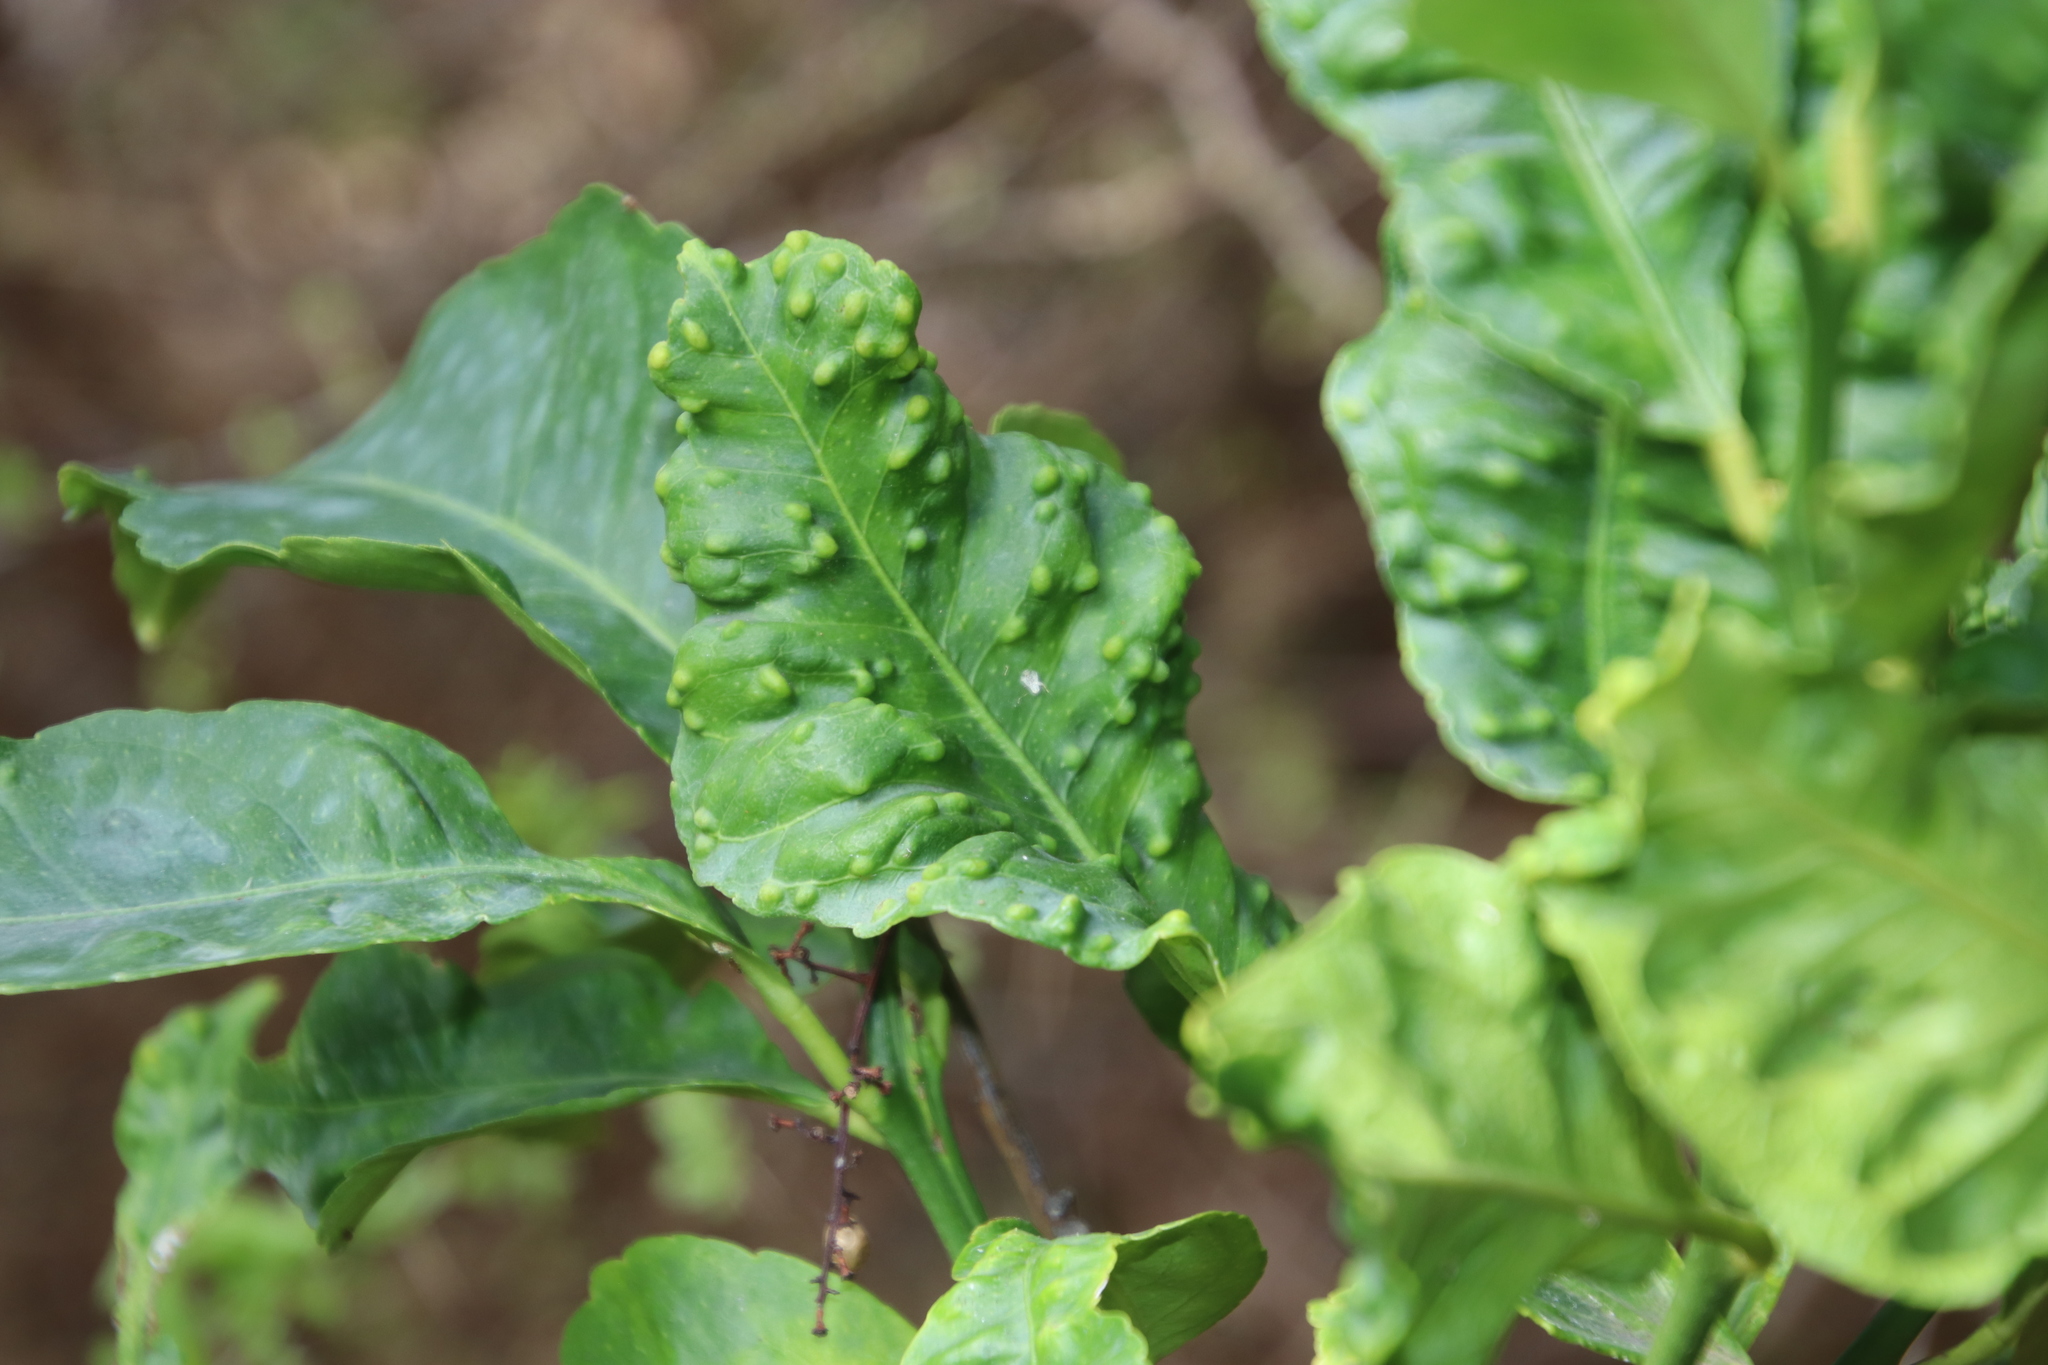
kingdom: Animalia
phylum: Arthropoda
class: Insecta
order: Hemiptera
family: Triozidae
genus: Trioza
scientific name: Trioza erytreae
